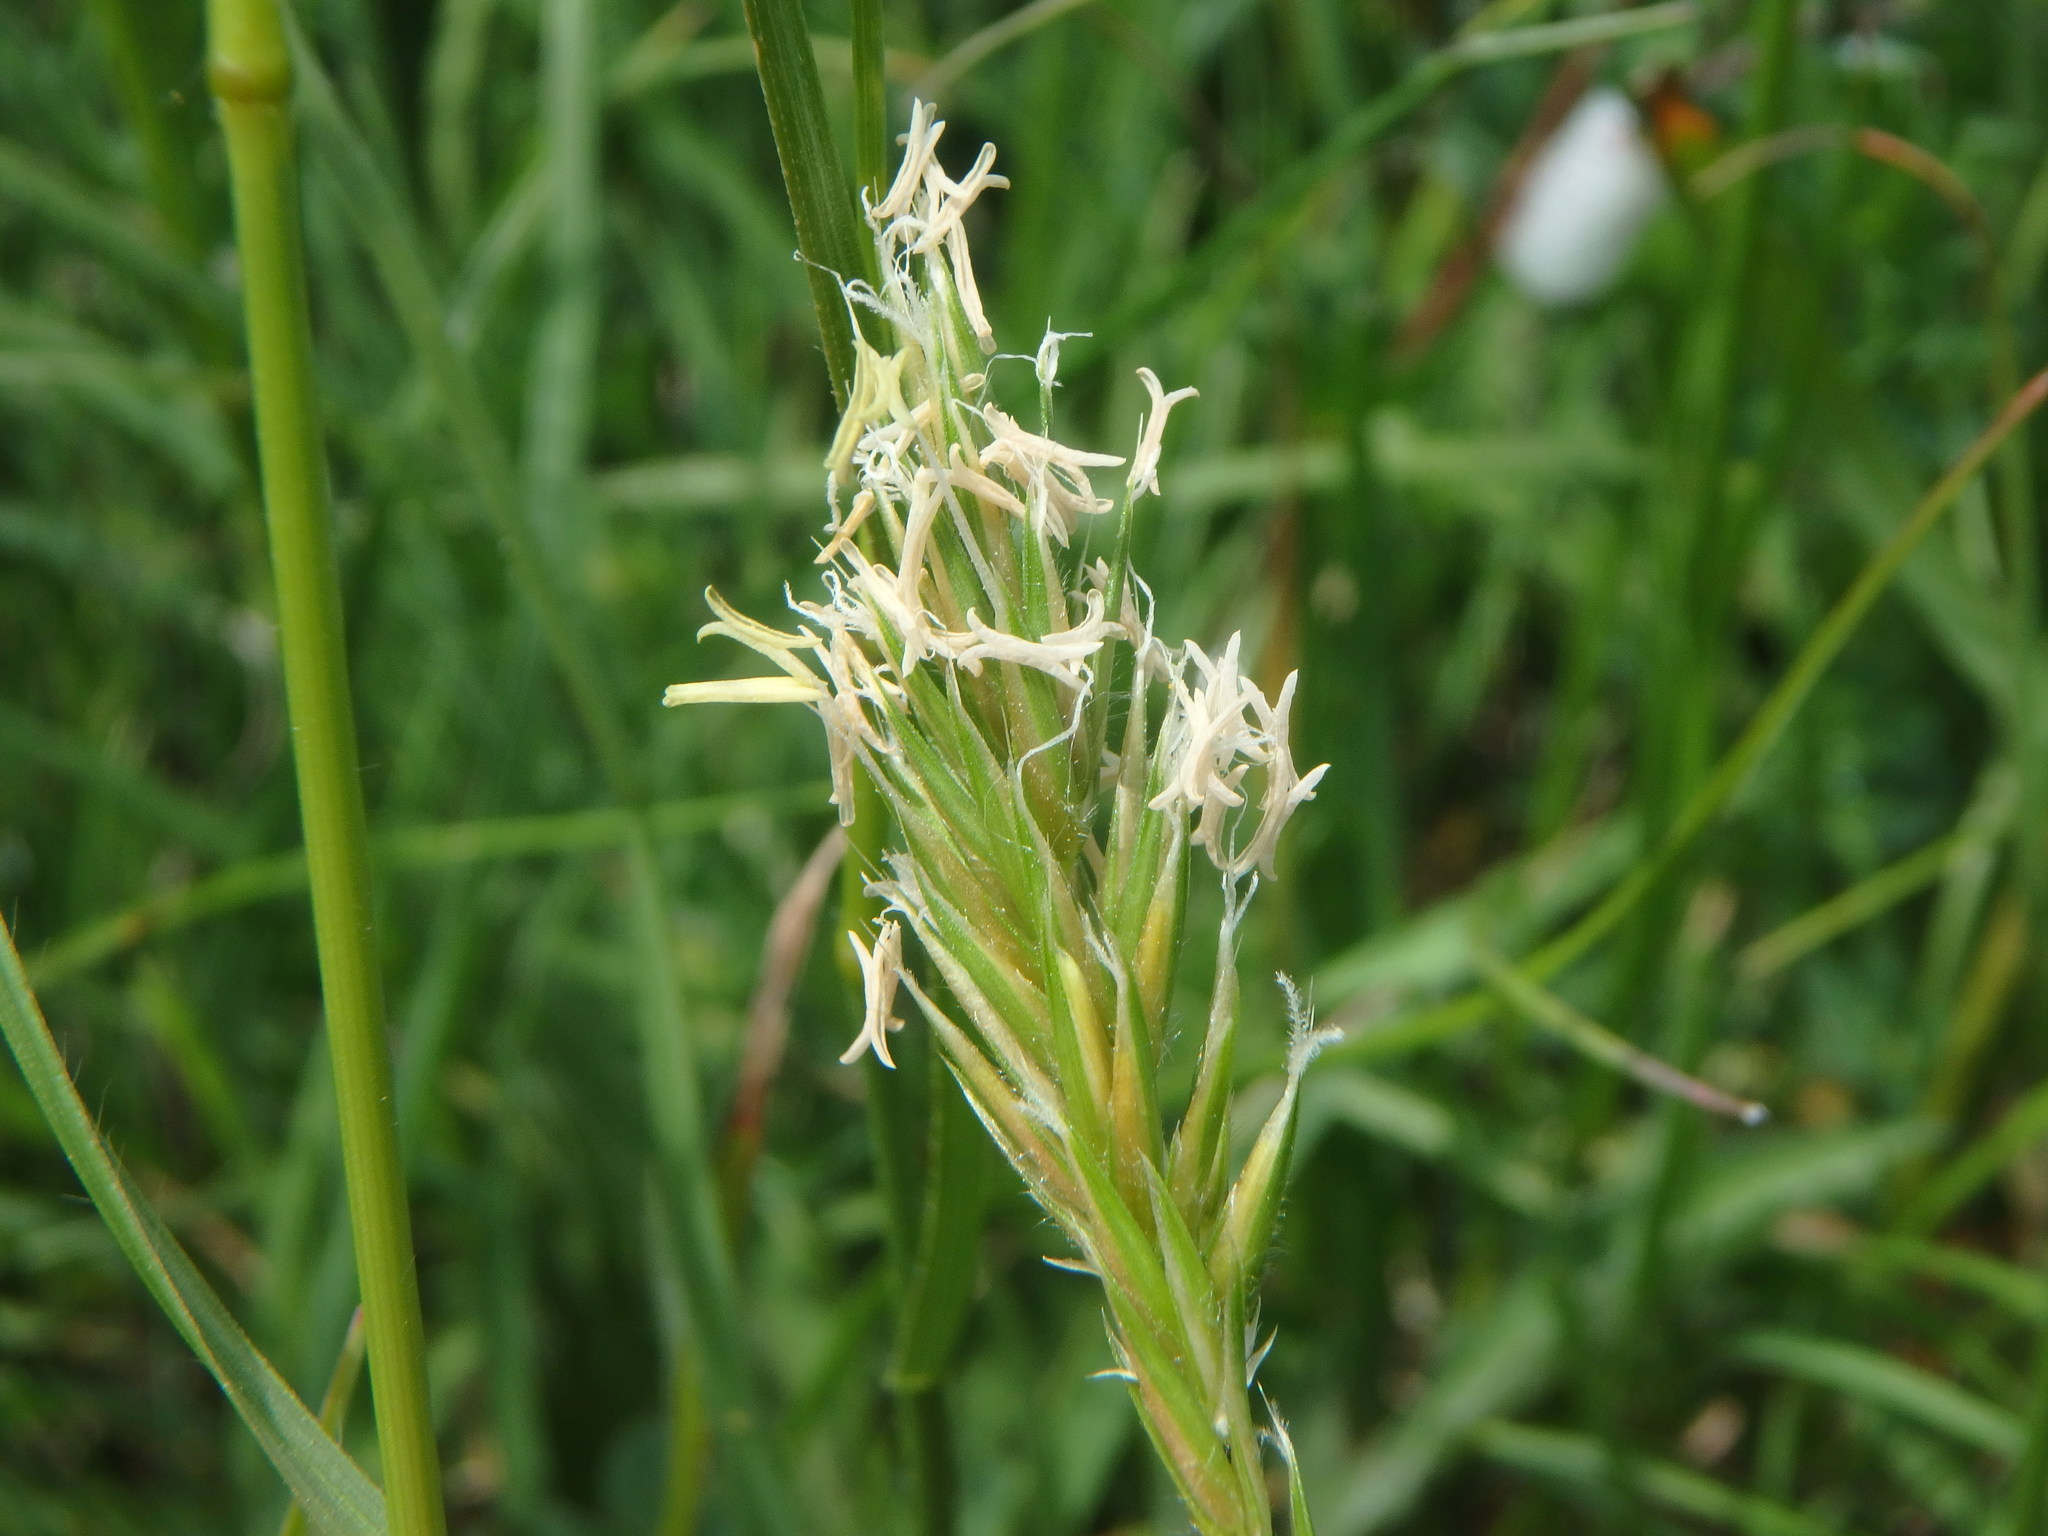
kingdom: Plantae
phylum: Tracheophyta
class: Liliopsida
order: Poales
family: Poaceae
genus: Anthoxanthum
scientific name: Anthoxanthum odoratum
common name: Sweet vernalgrass
